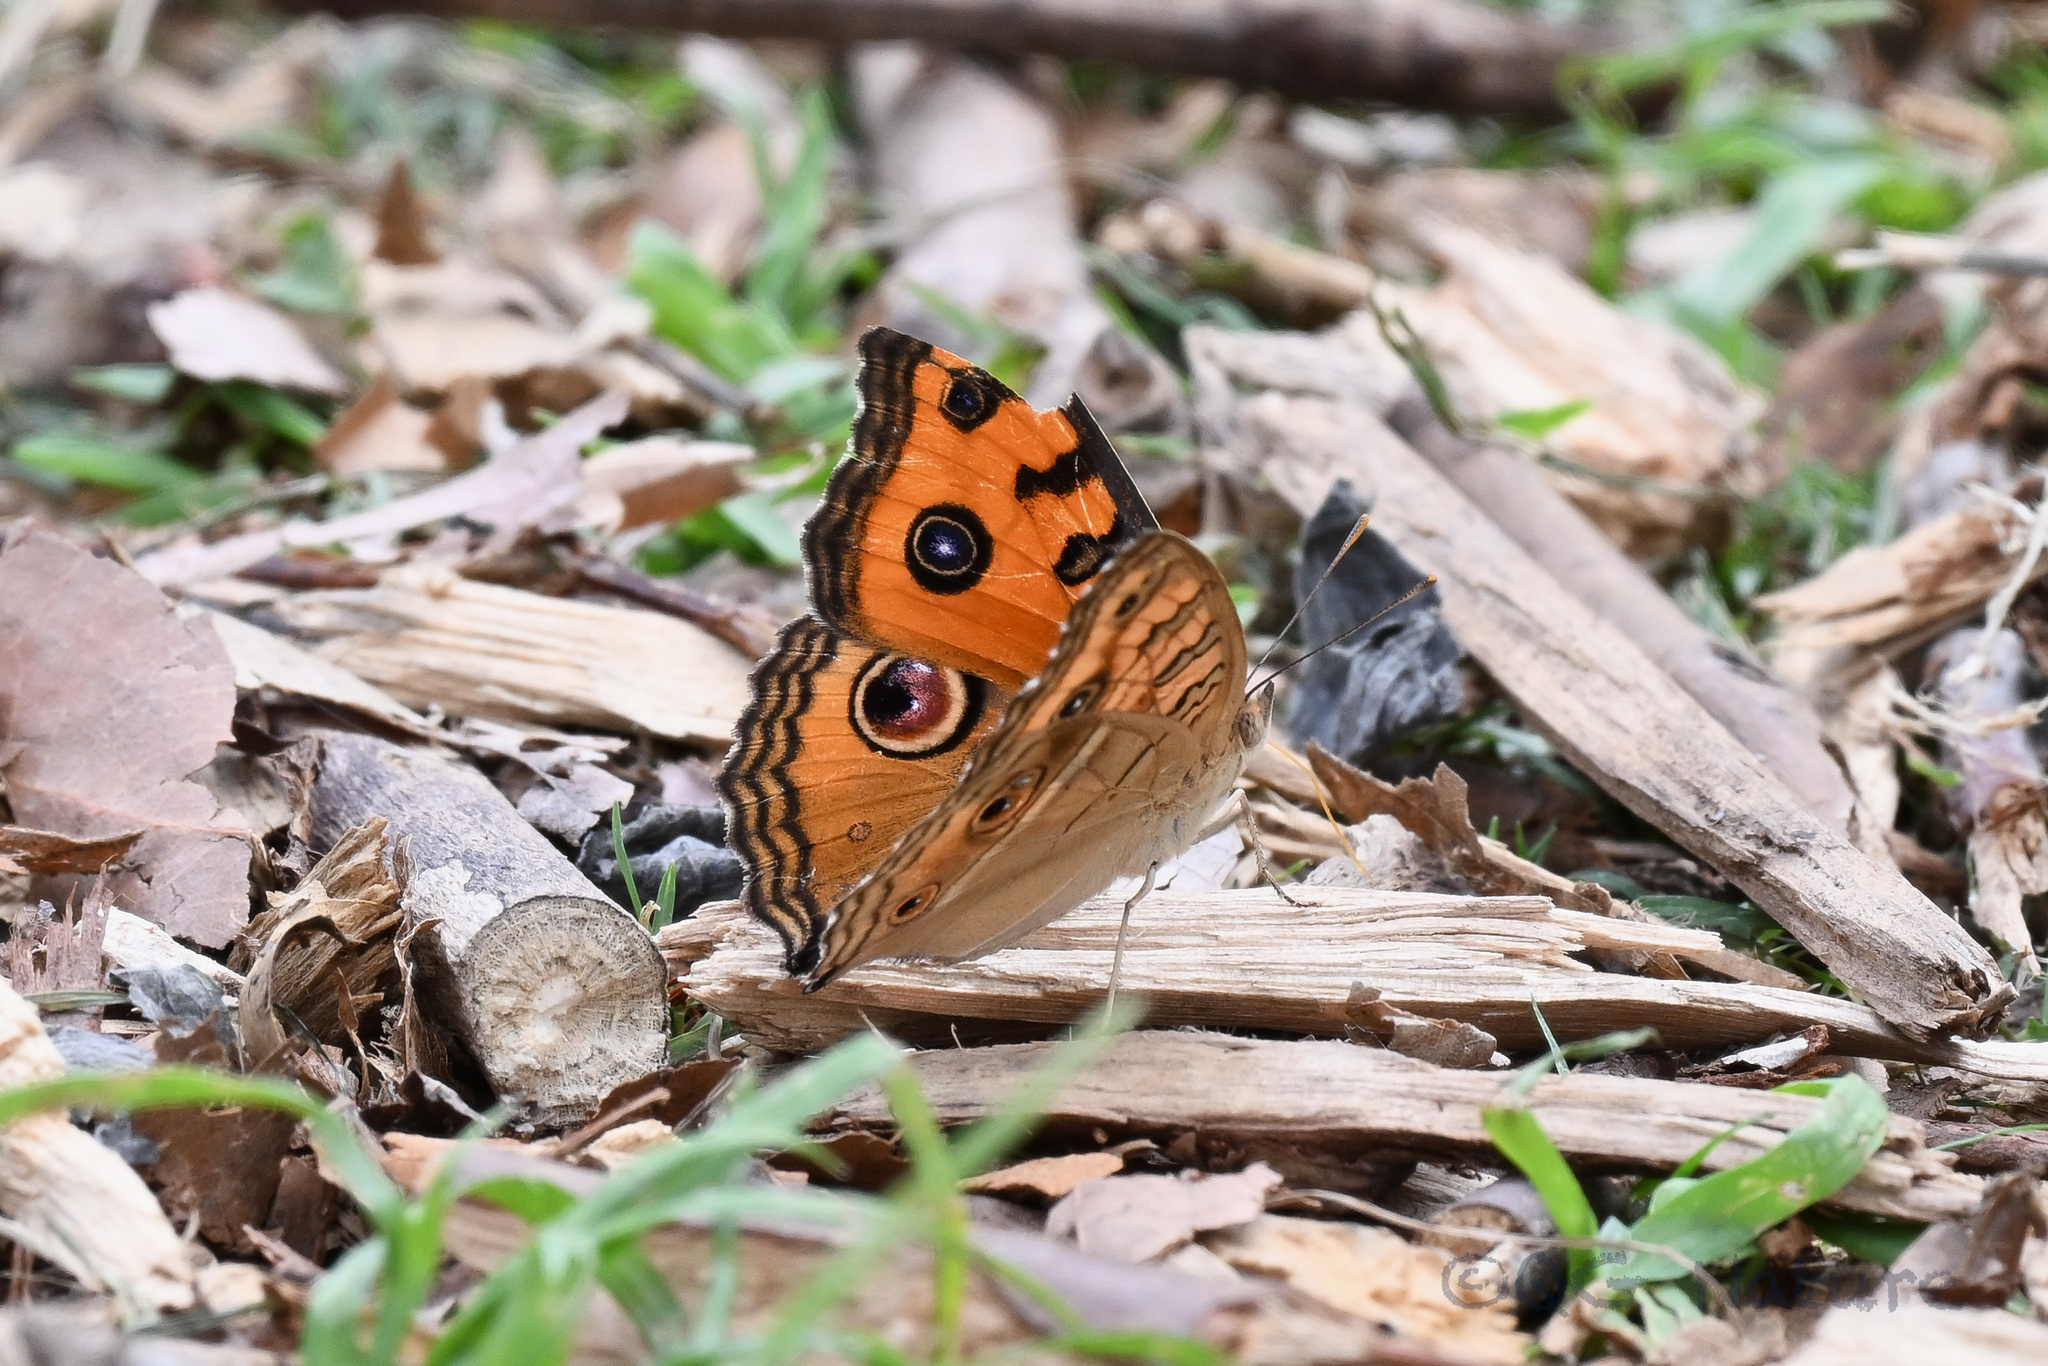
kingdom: Animalia
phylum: Arthropoda
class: Insecta
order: Lepidoptera
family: Nymphalidae
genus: Junonia
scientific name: Junonia almana
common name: Peacock pansy
